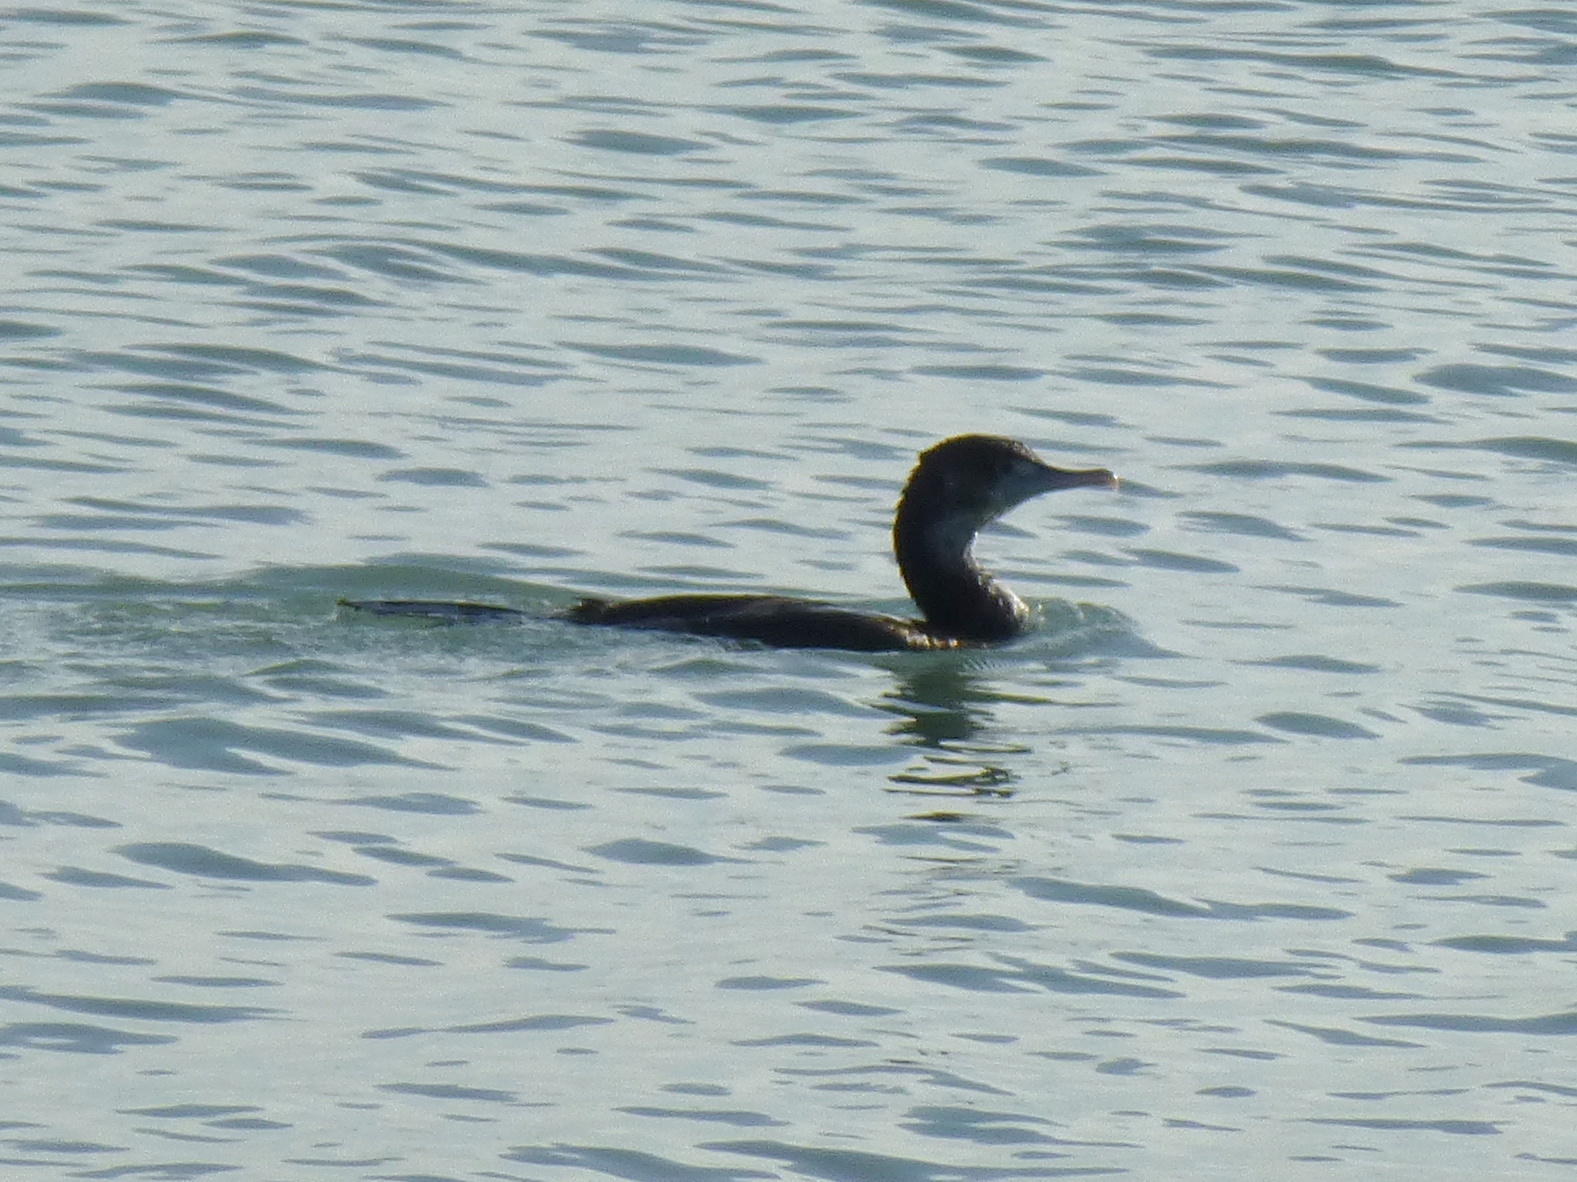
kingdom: Animalia
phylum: Chordata
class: Aves
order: Suliformes
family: Phalacrocoracidae
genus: Phalacrocorax
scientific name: Phalacrocorax varius
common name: Pied cormorant
